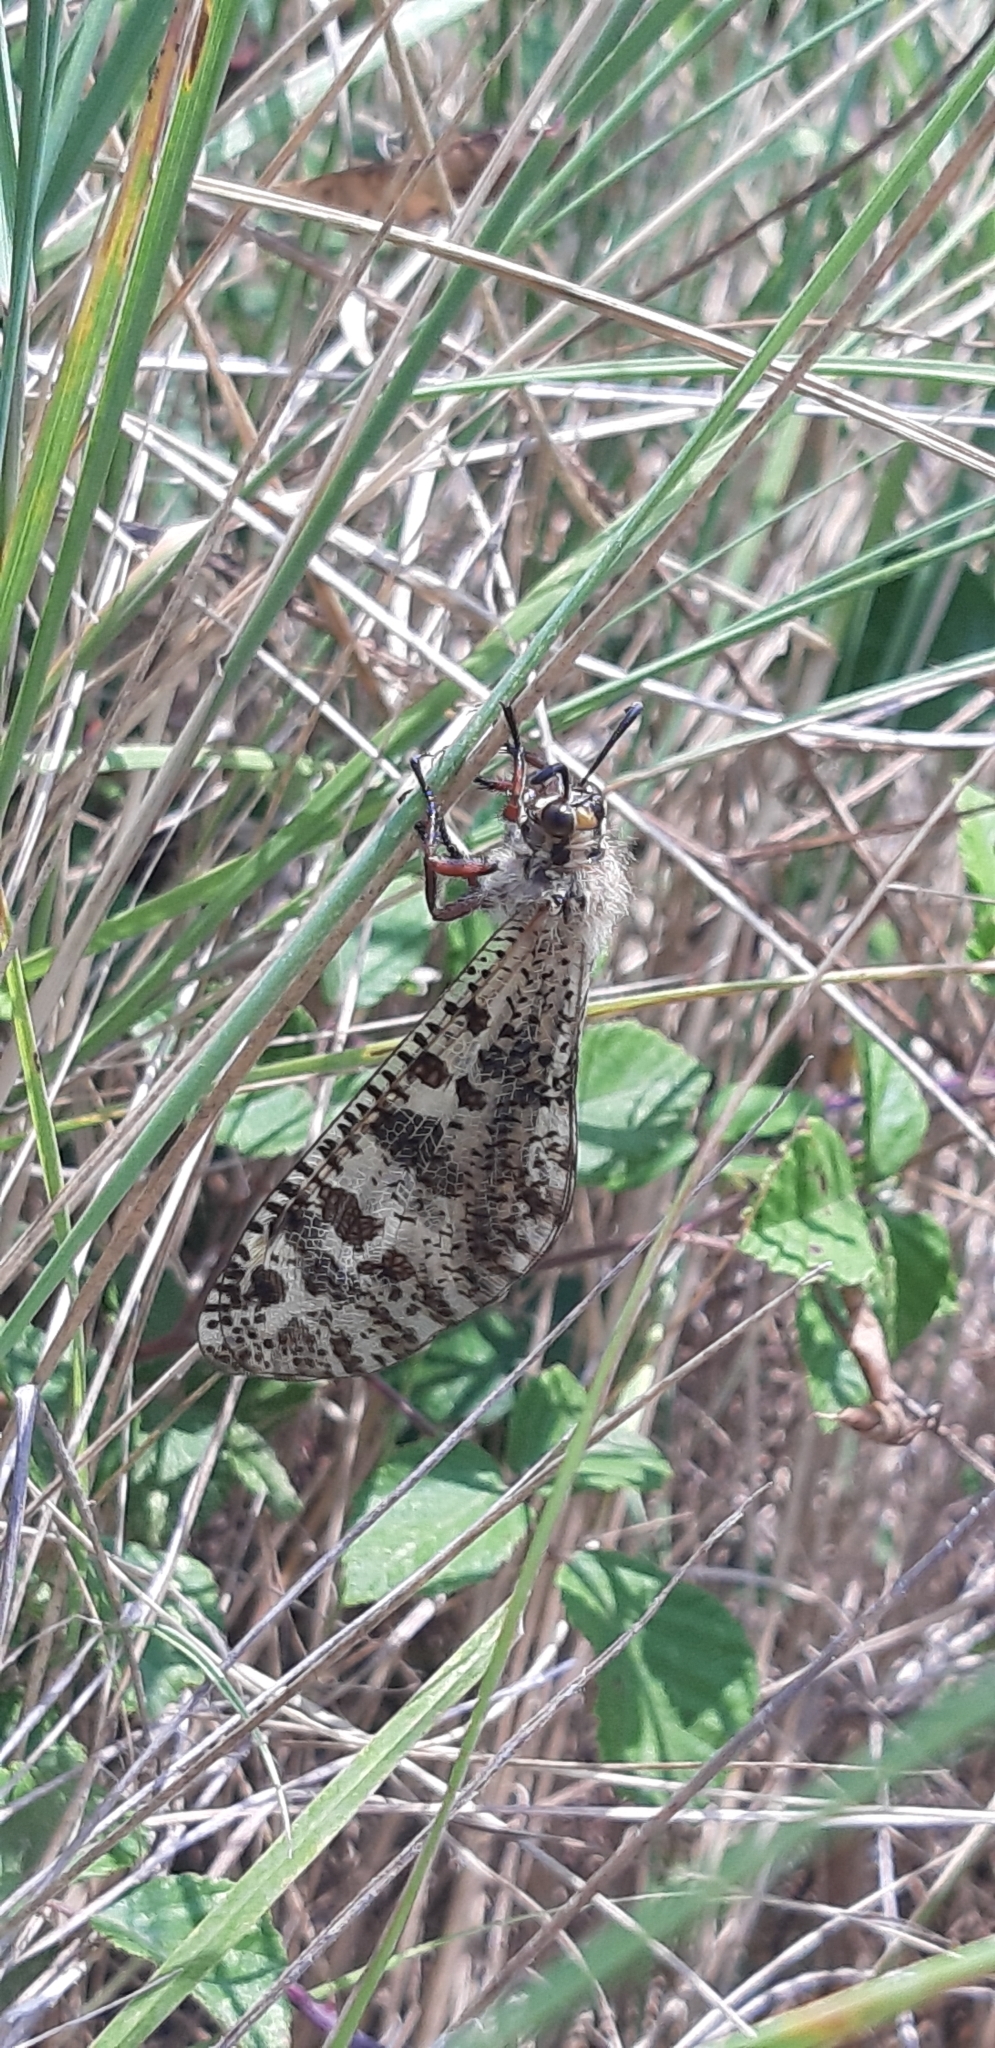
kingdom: Animalia
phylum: Arthropoda
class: Insecta
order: Neuroptera
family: Myrmeleontidae
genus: Palpares
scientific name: Palpares libelluloides
